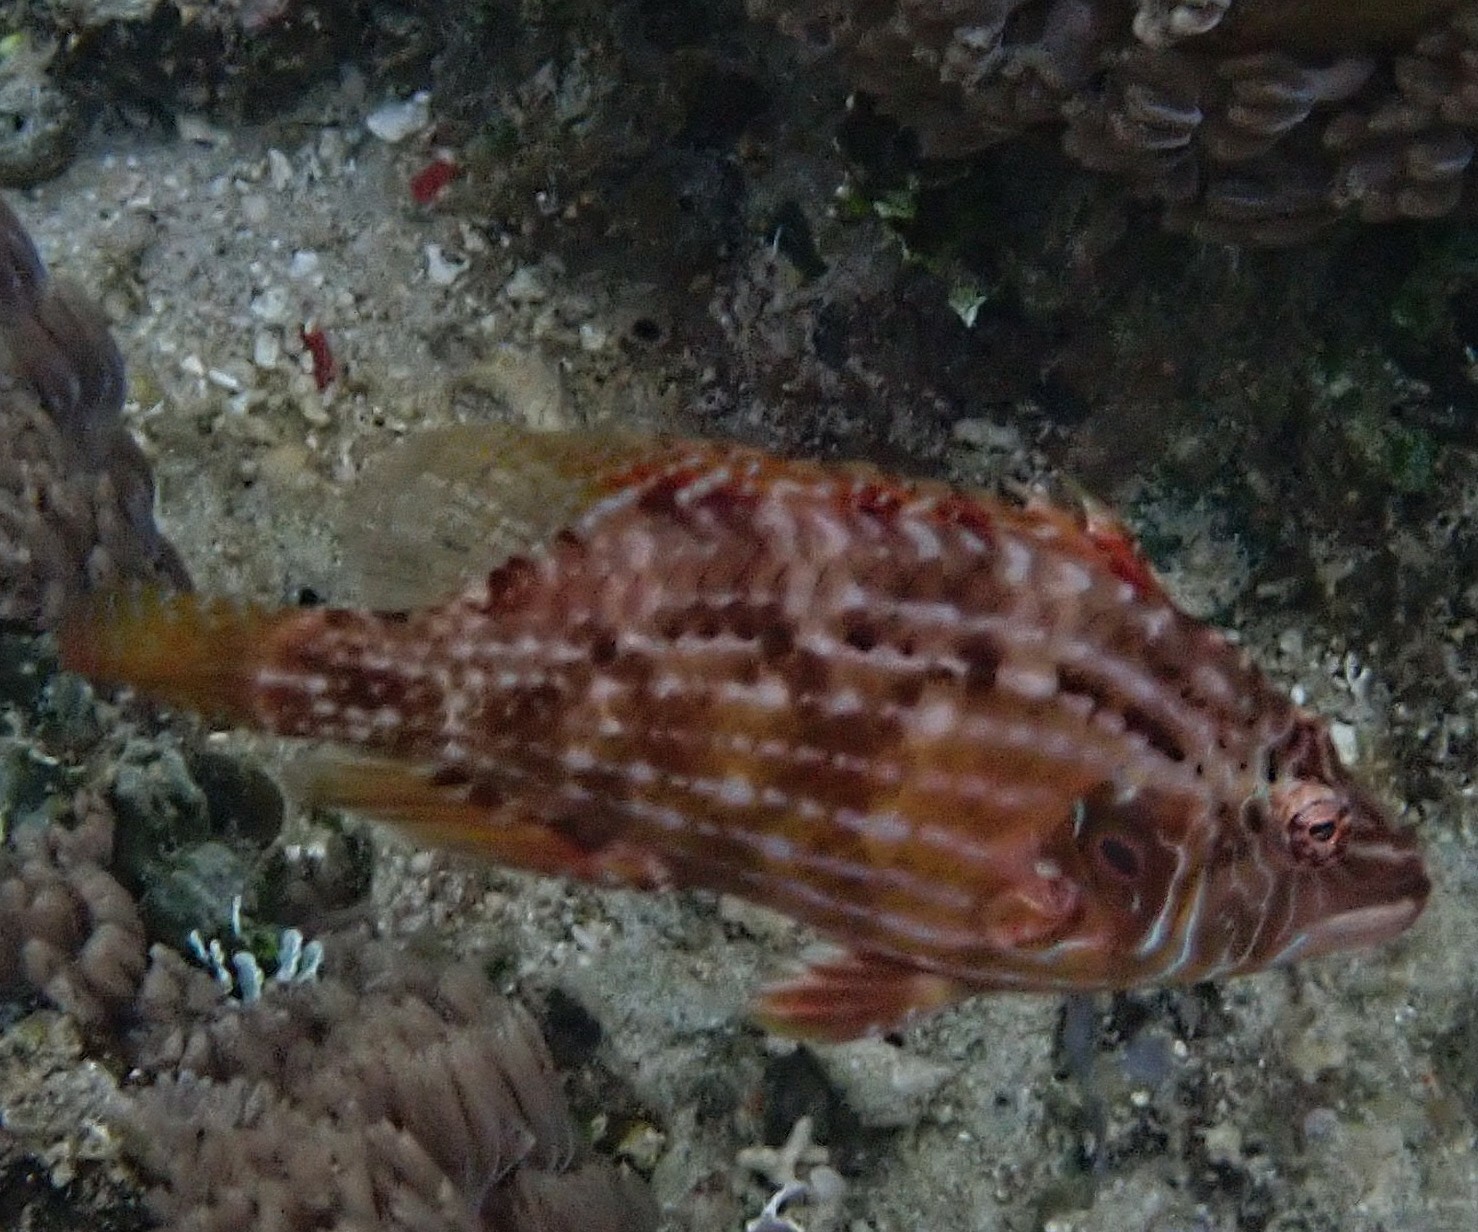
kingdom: Animalia
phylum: Chordata
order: Perciformes
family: Labridae
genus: Pteragogus
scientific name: Pteragogus enneacanthus
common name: Cockerel wrasse
